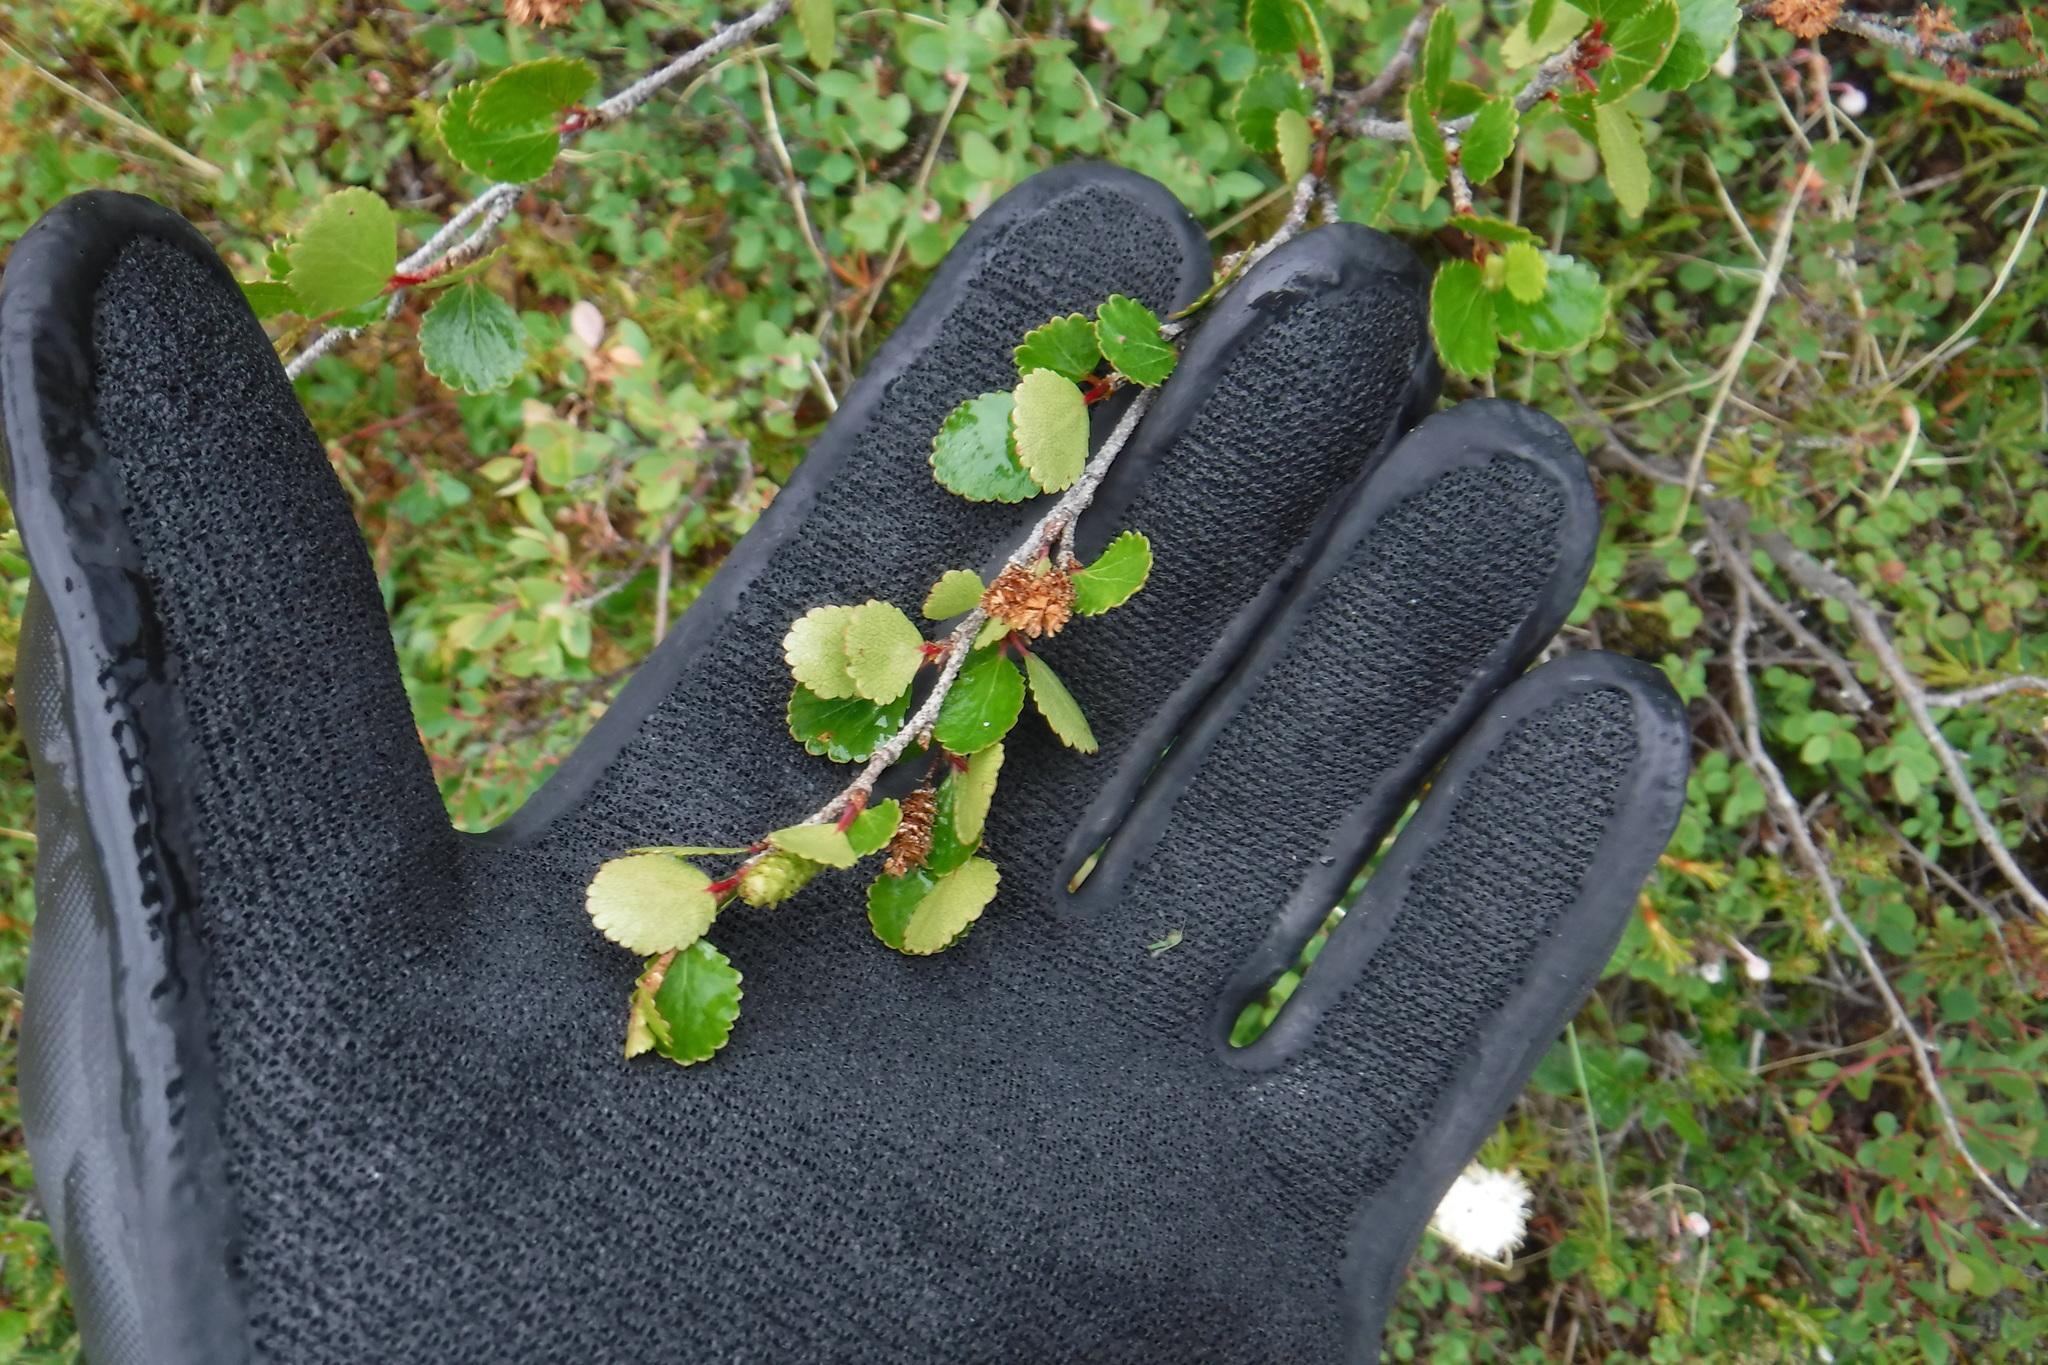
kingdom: Plantae
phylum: Tracheophyta
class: Magnoliopsida
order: Fagales
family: Betulaceae
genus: Betula
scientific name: Betula glandulosa
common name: Dwarf birch
